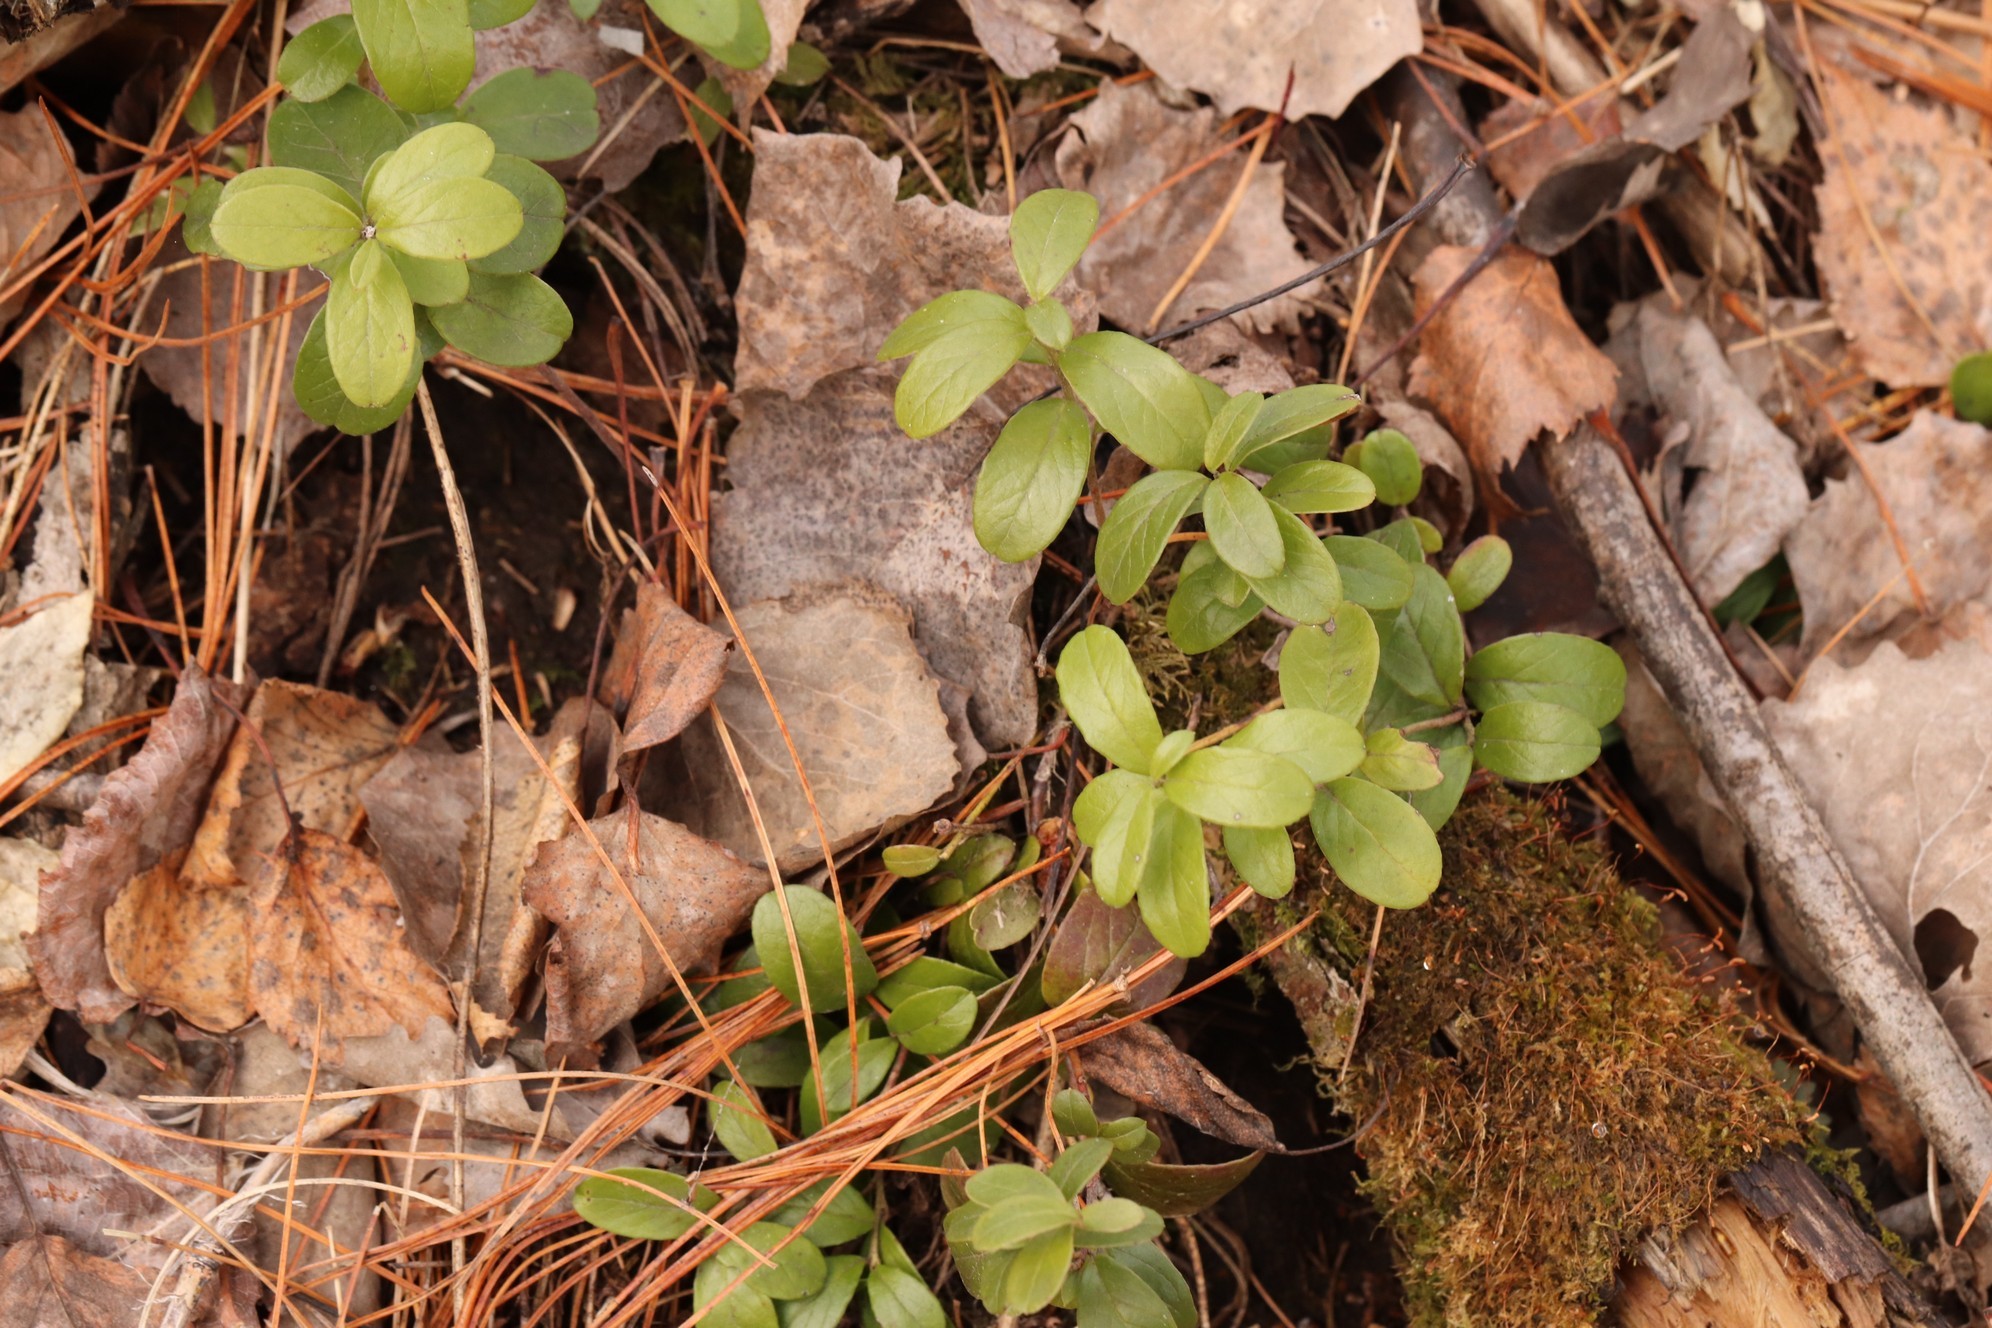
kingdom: Plantae
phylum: Tracheophyta
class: Magnoliopsida
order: Ericales
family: Ericaceae
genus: Vaccinium
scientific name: Vaccinium vitis-idaea
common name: Cowberry
